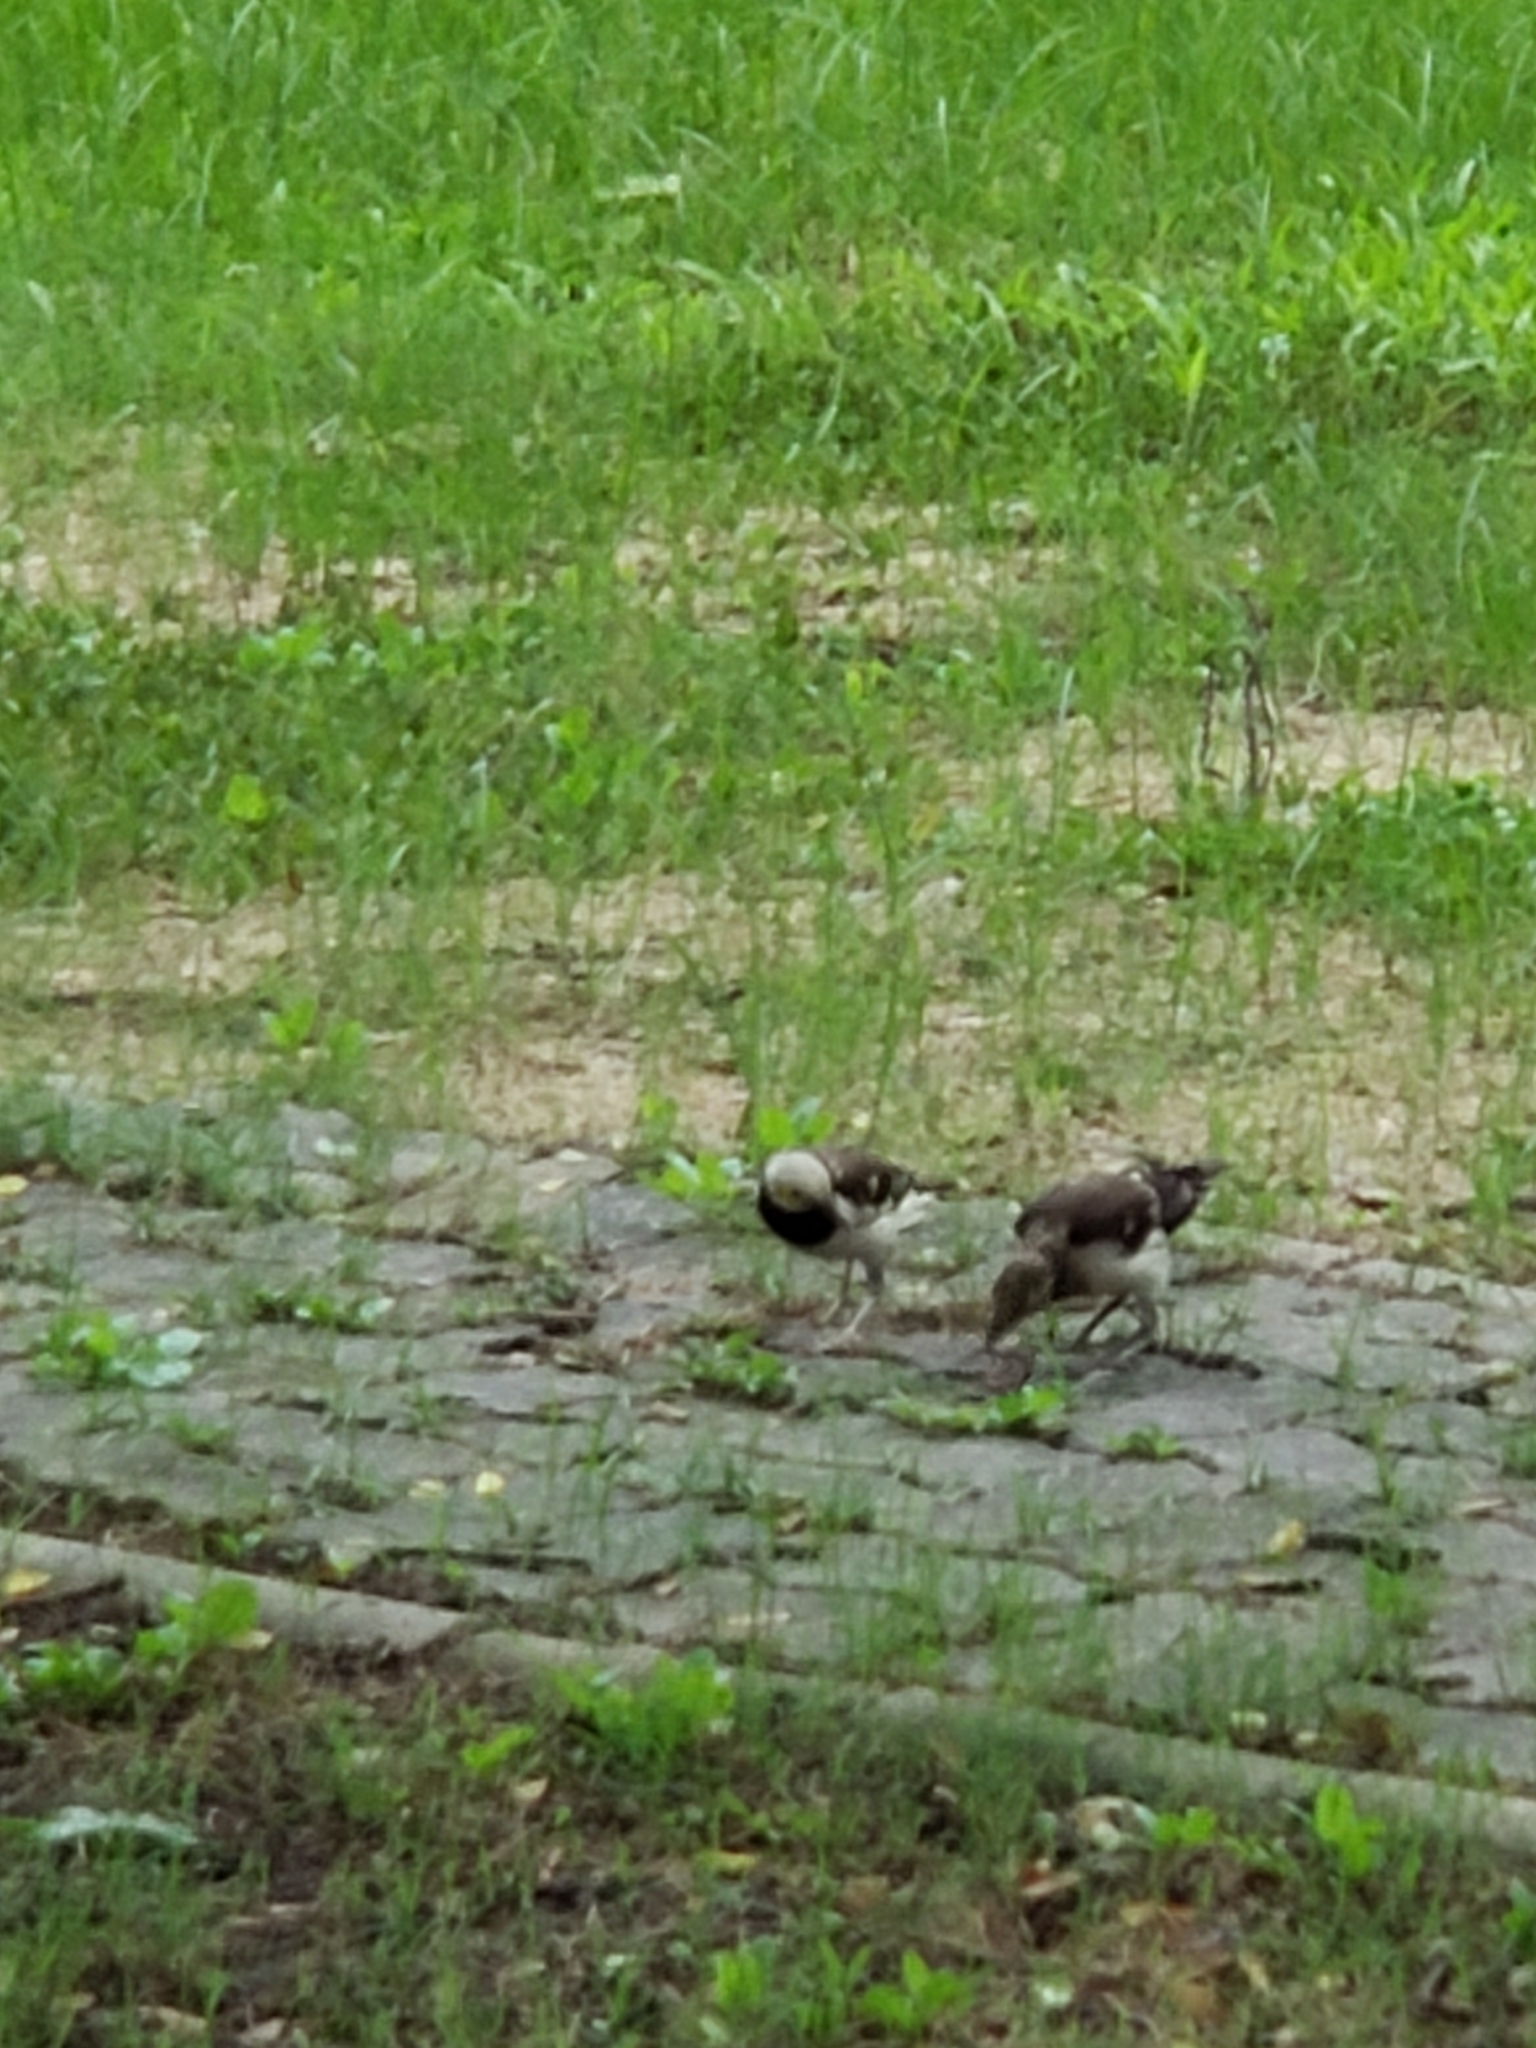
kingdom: Animalia
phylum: Chordata
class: Aves
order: Passeriformes
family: Sturnidae
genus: Gracupica
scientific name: Gracupica nigricollis
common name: Black-collared starling
